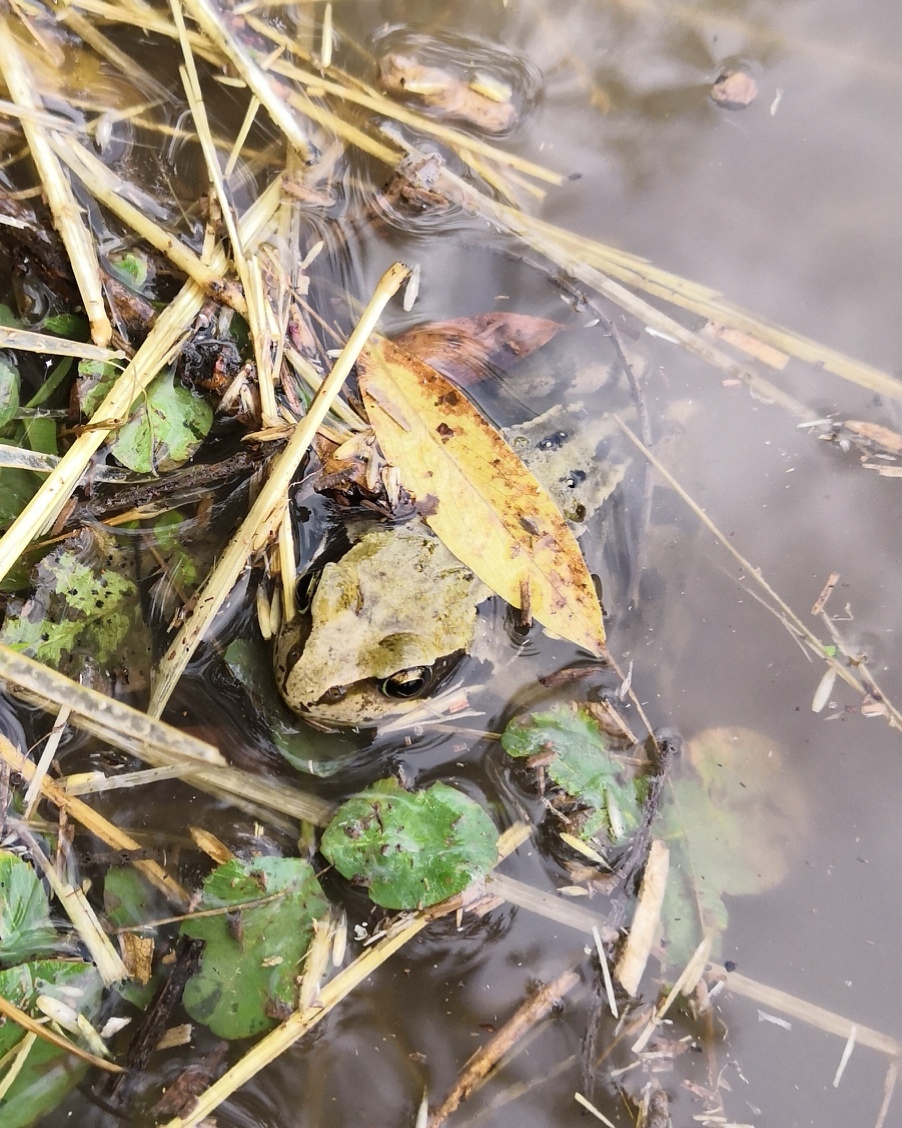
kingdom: Animalia
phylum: Chordata
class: Amphibia
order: Anura
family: Ranidae
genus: Rana
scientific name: Rana temporaria
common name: Common frog
